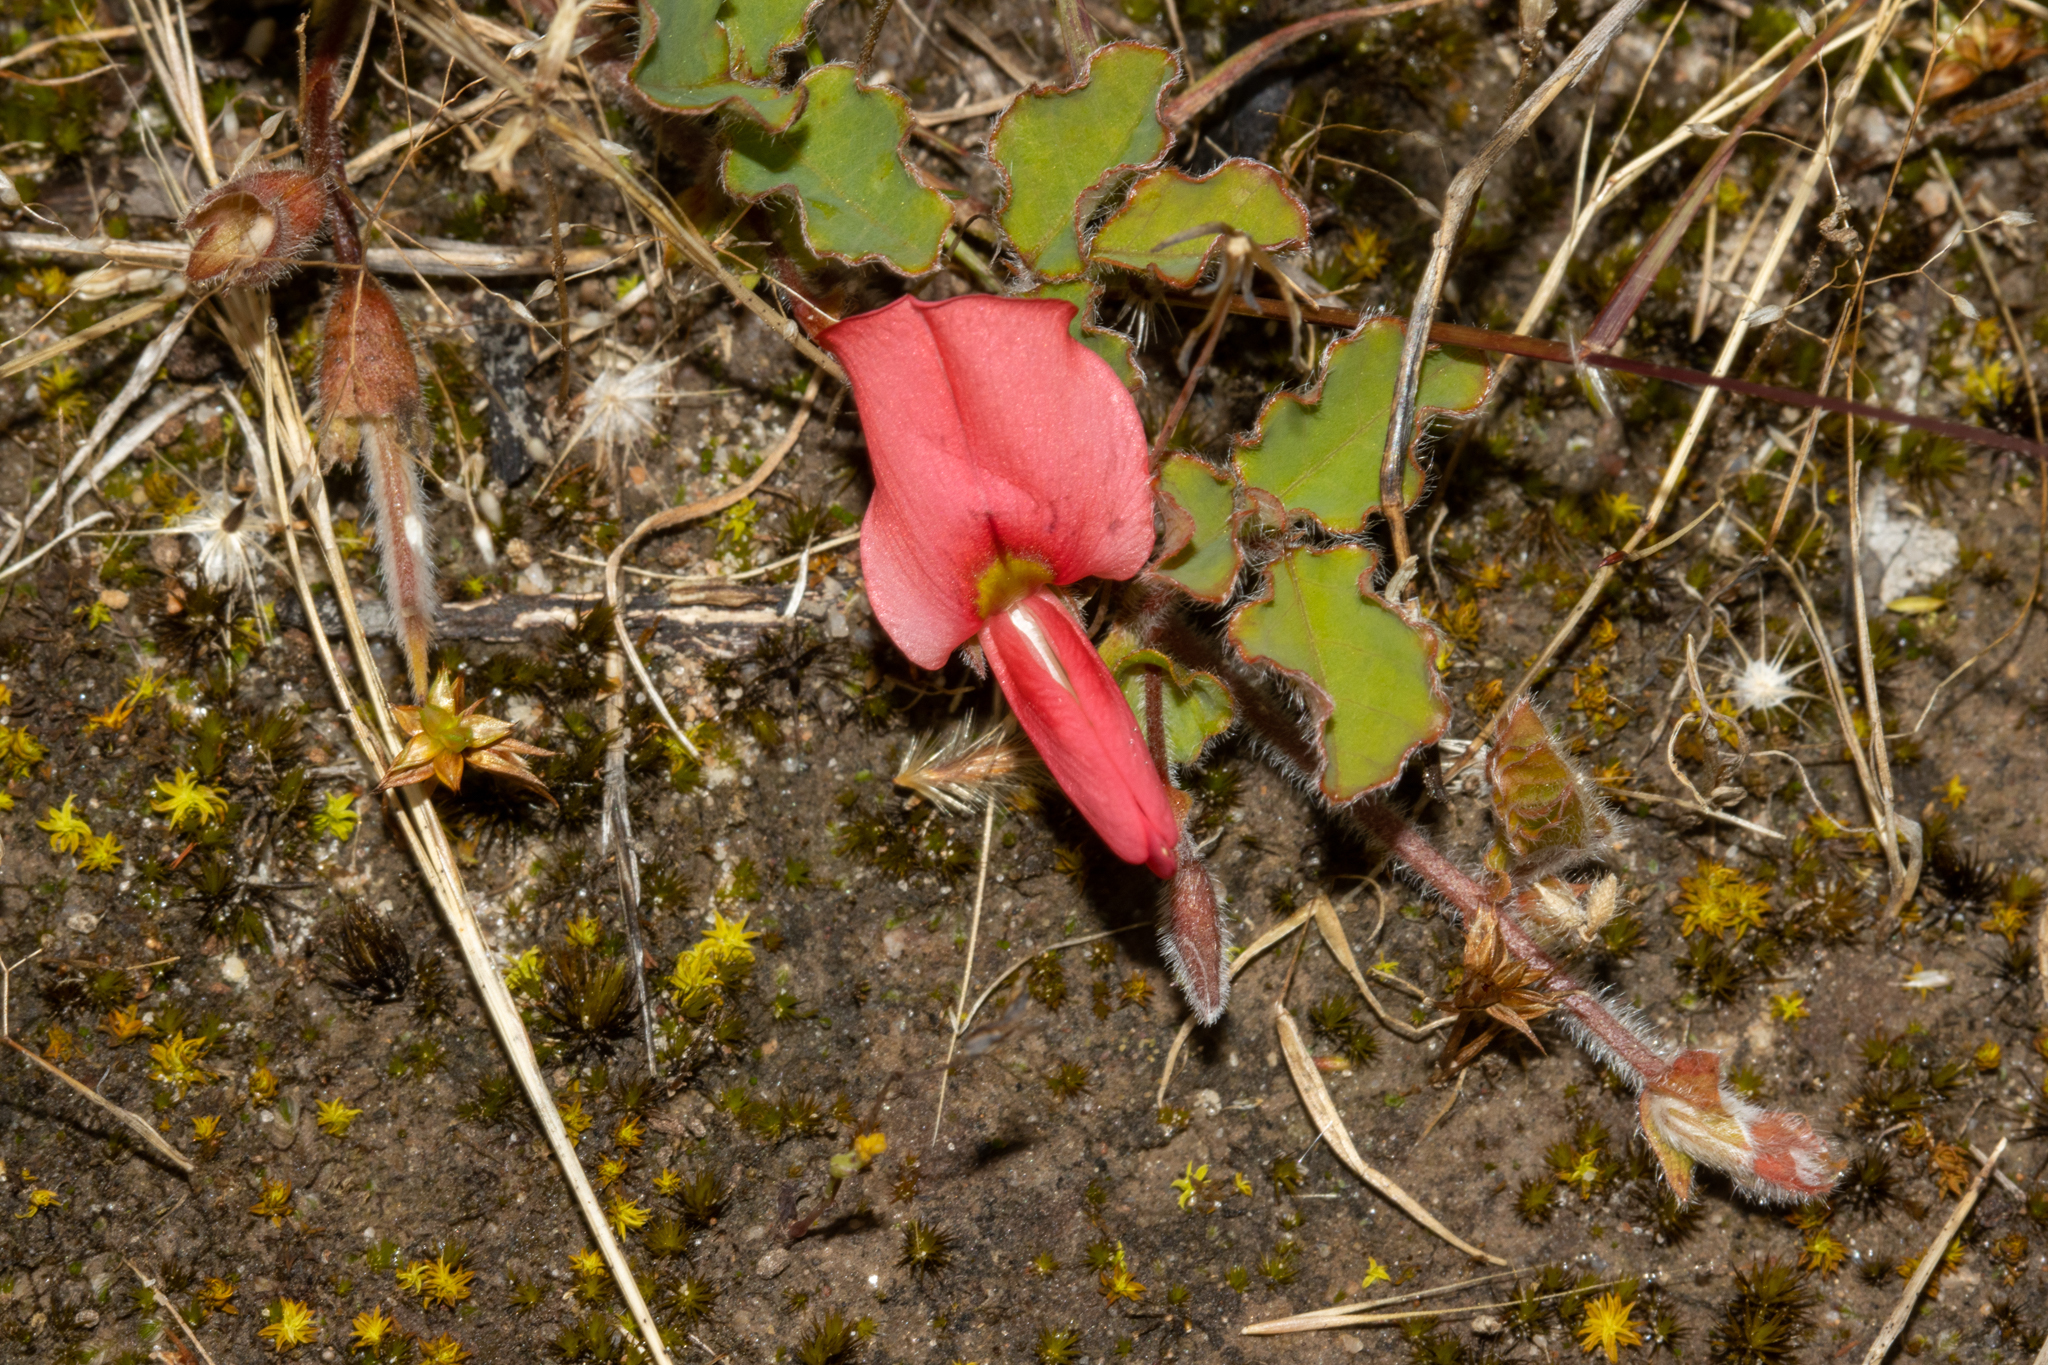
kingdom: Plantae
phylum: Tracheophyta
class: Magnoliopsida
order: Fabales
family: Fabaceae
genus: Kennedia
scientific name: Kennedia prostrata
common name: Running-postman
